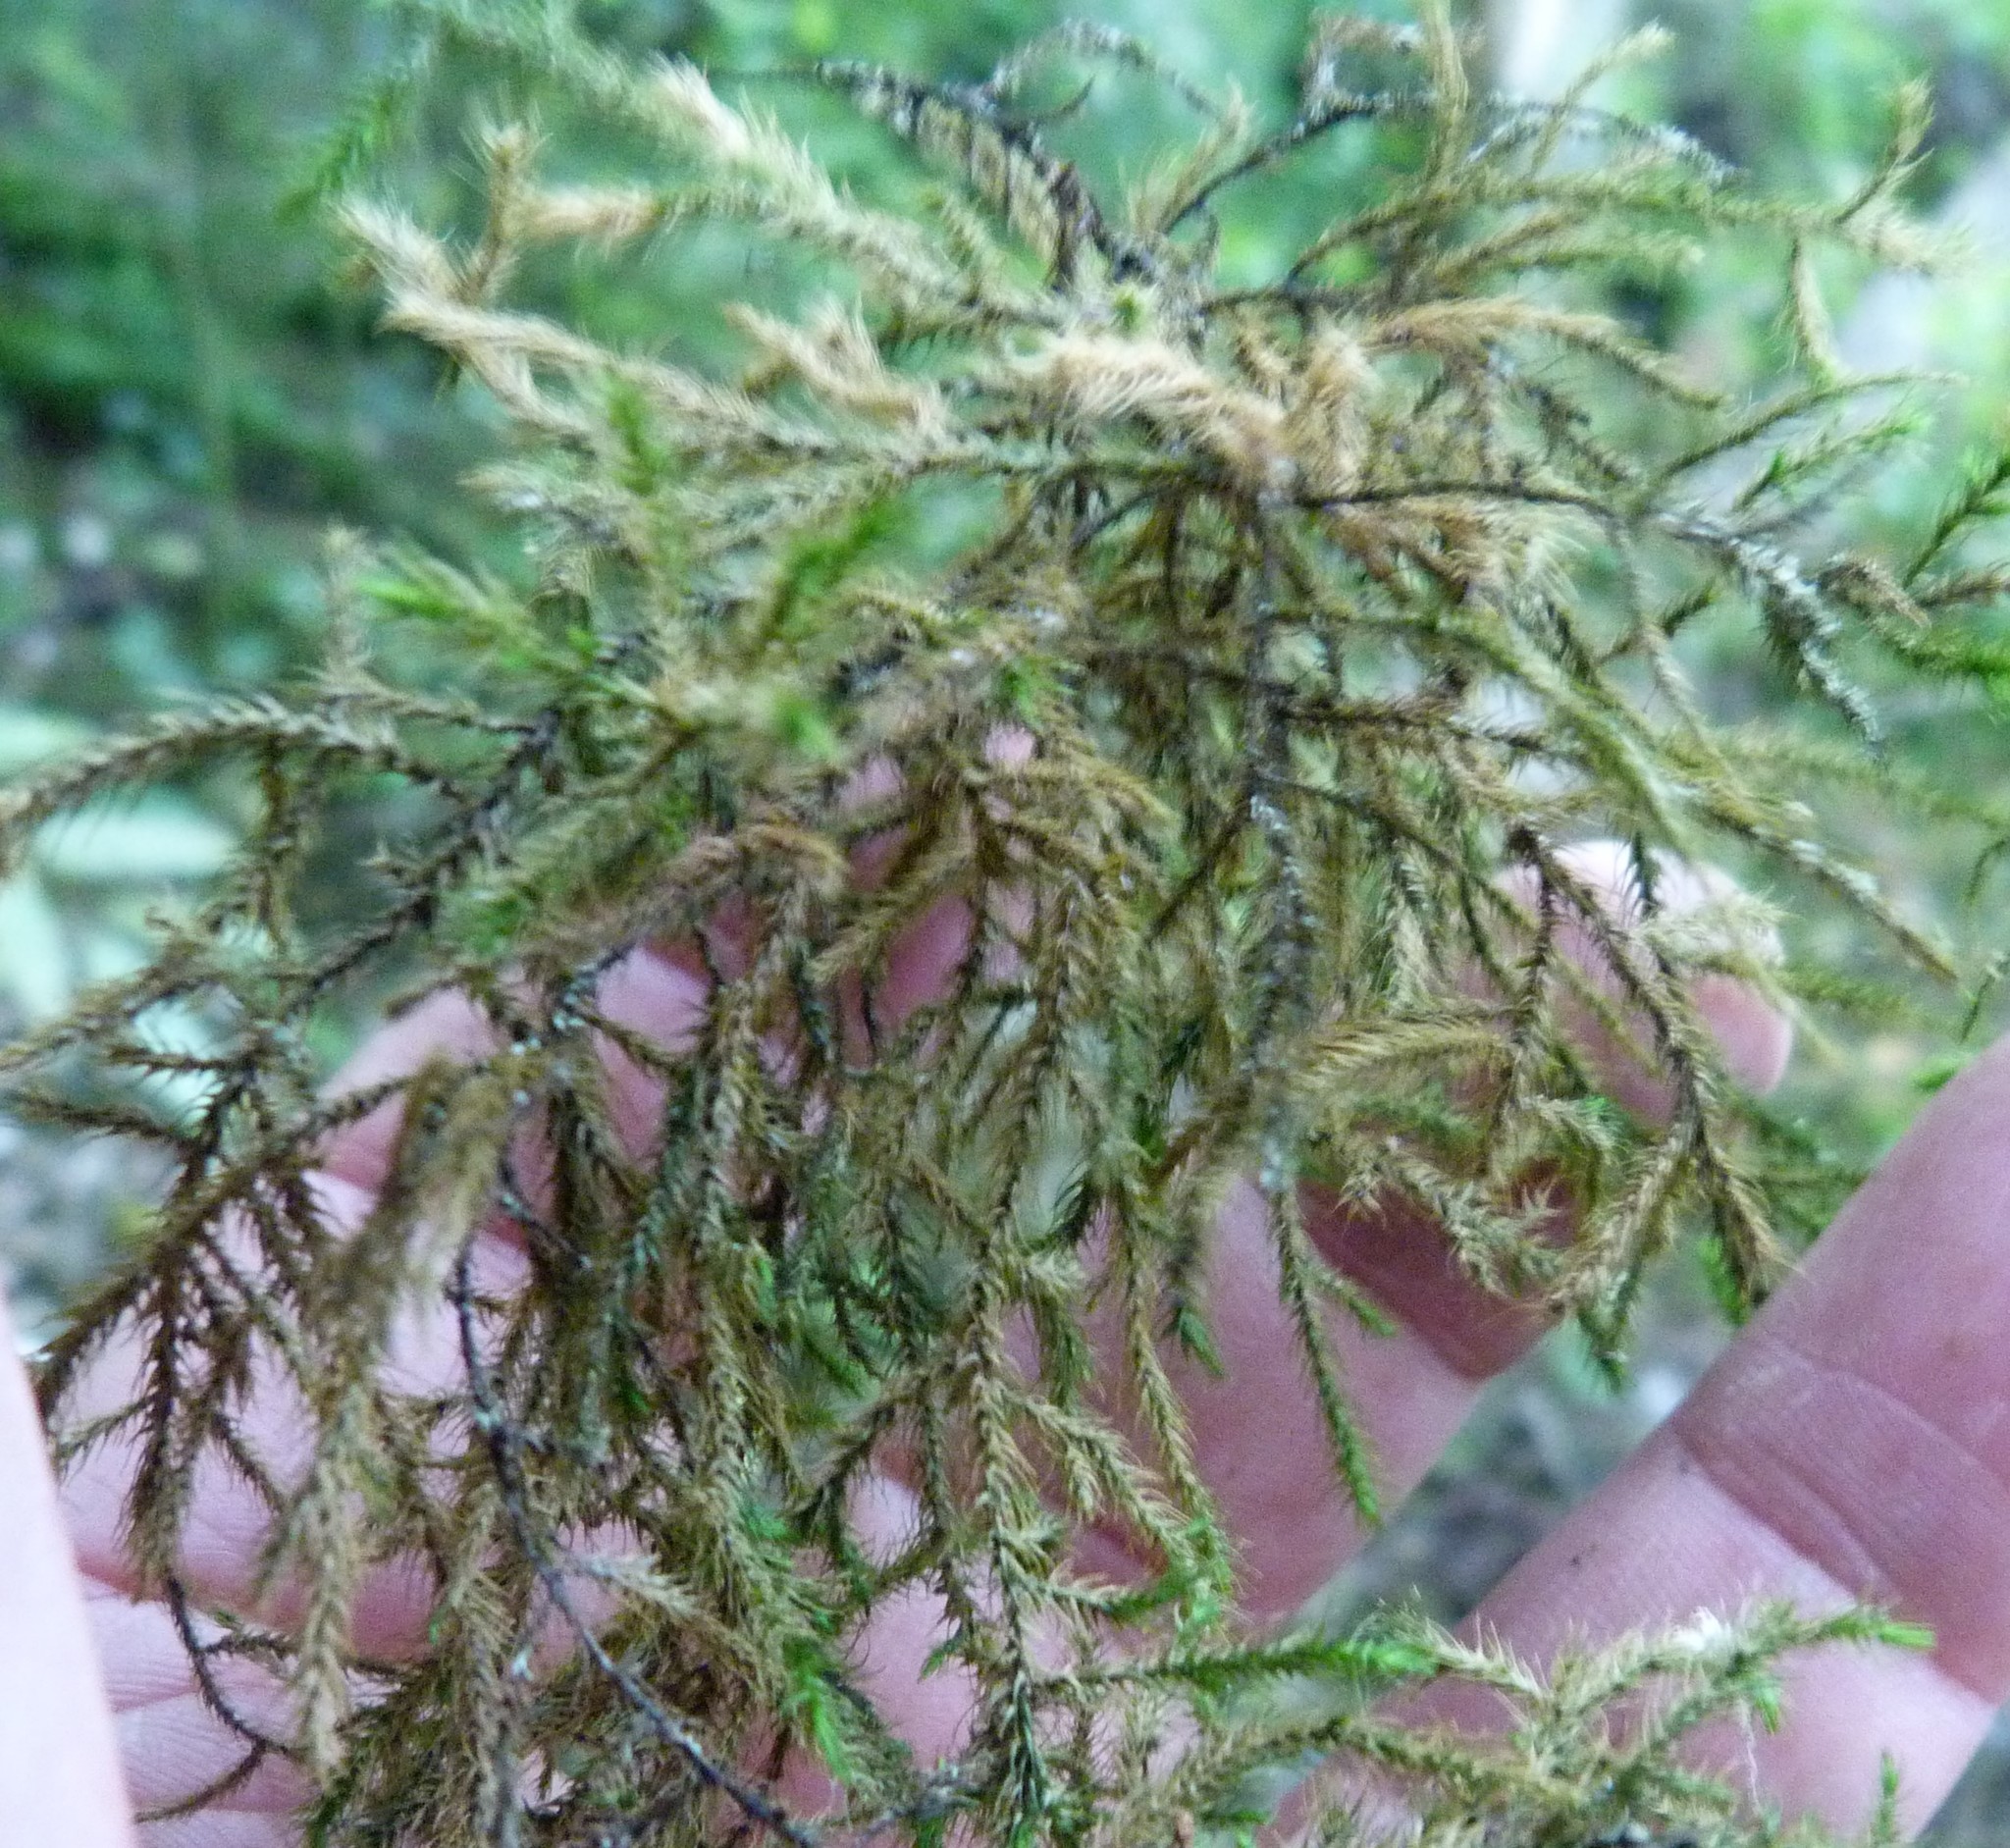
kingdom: Plantae
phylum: Bryophyta
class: Bryopsida
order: Hypnales
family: Neckeraceae
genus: Echinodiopsis
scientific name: Echinodiopsis hispida
